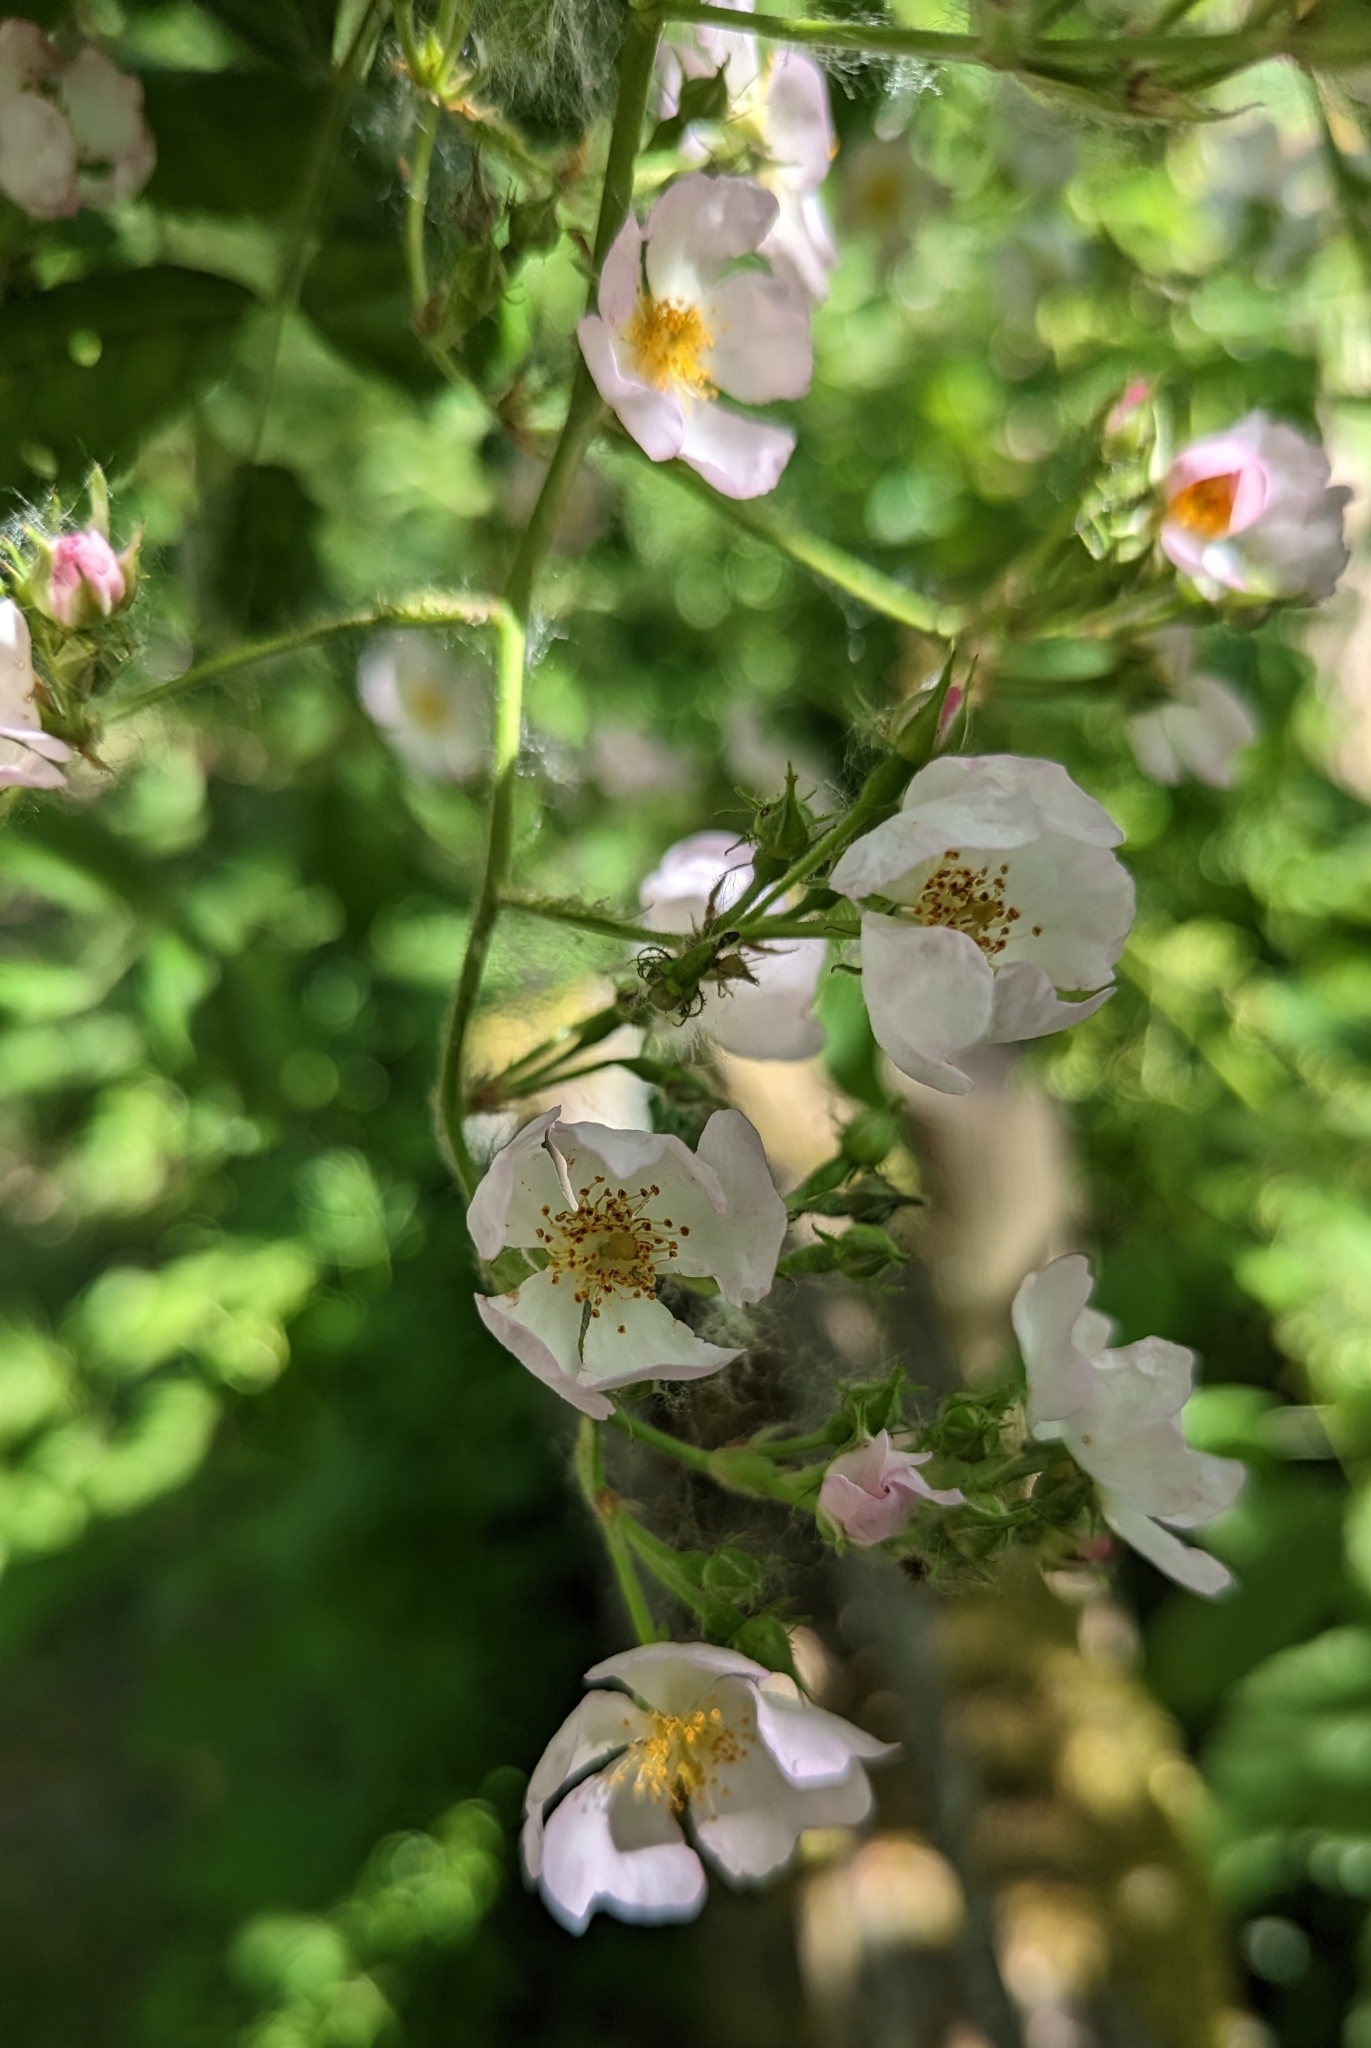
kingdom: Plantae
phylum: Tracheophyta
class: Magnoliopsida
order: Rosales
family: Rosaceae
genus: Rosa
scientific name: Rosa multiflora
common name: Multiflora rose
